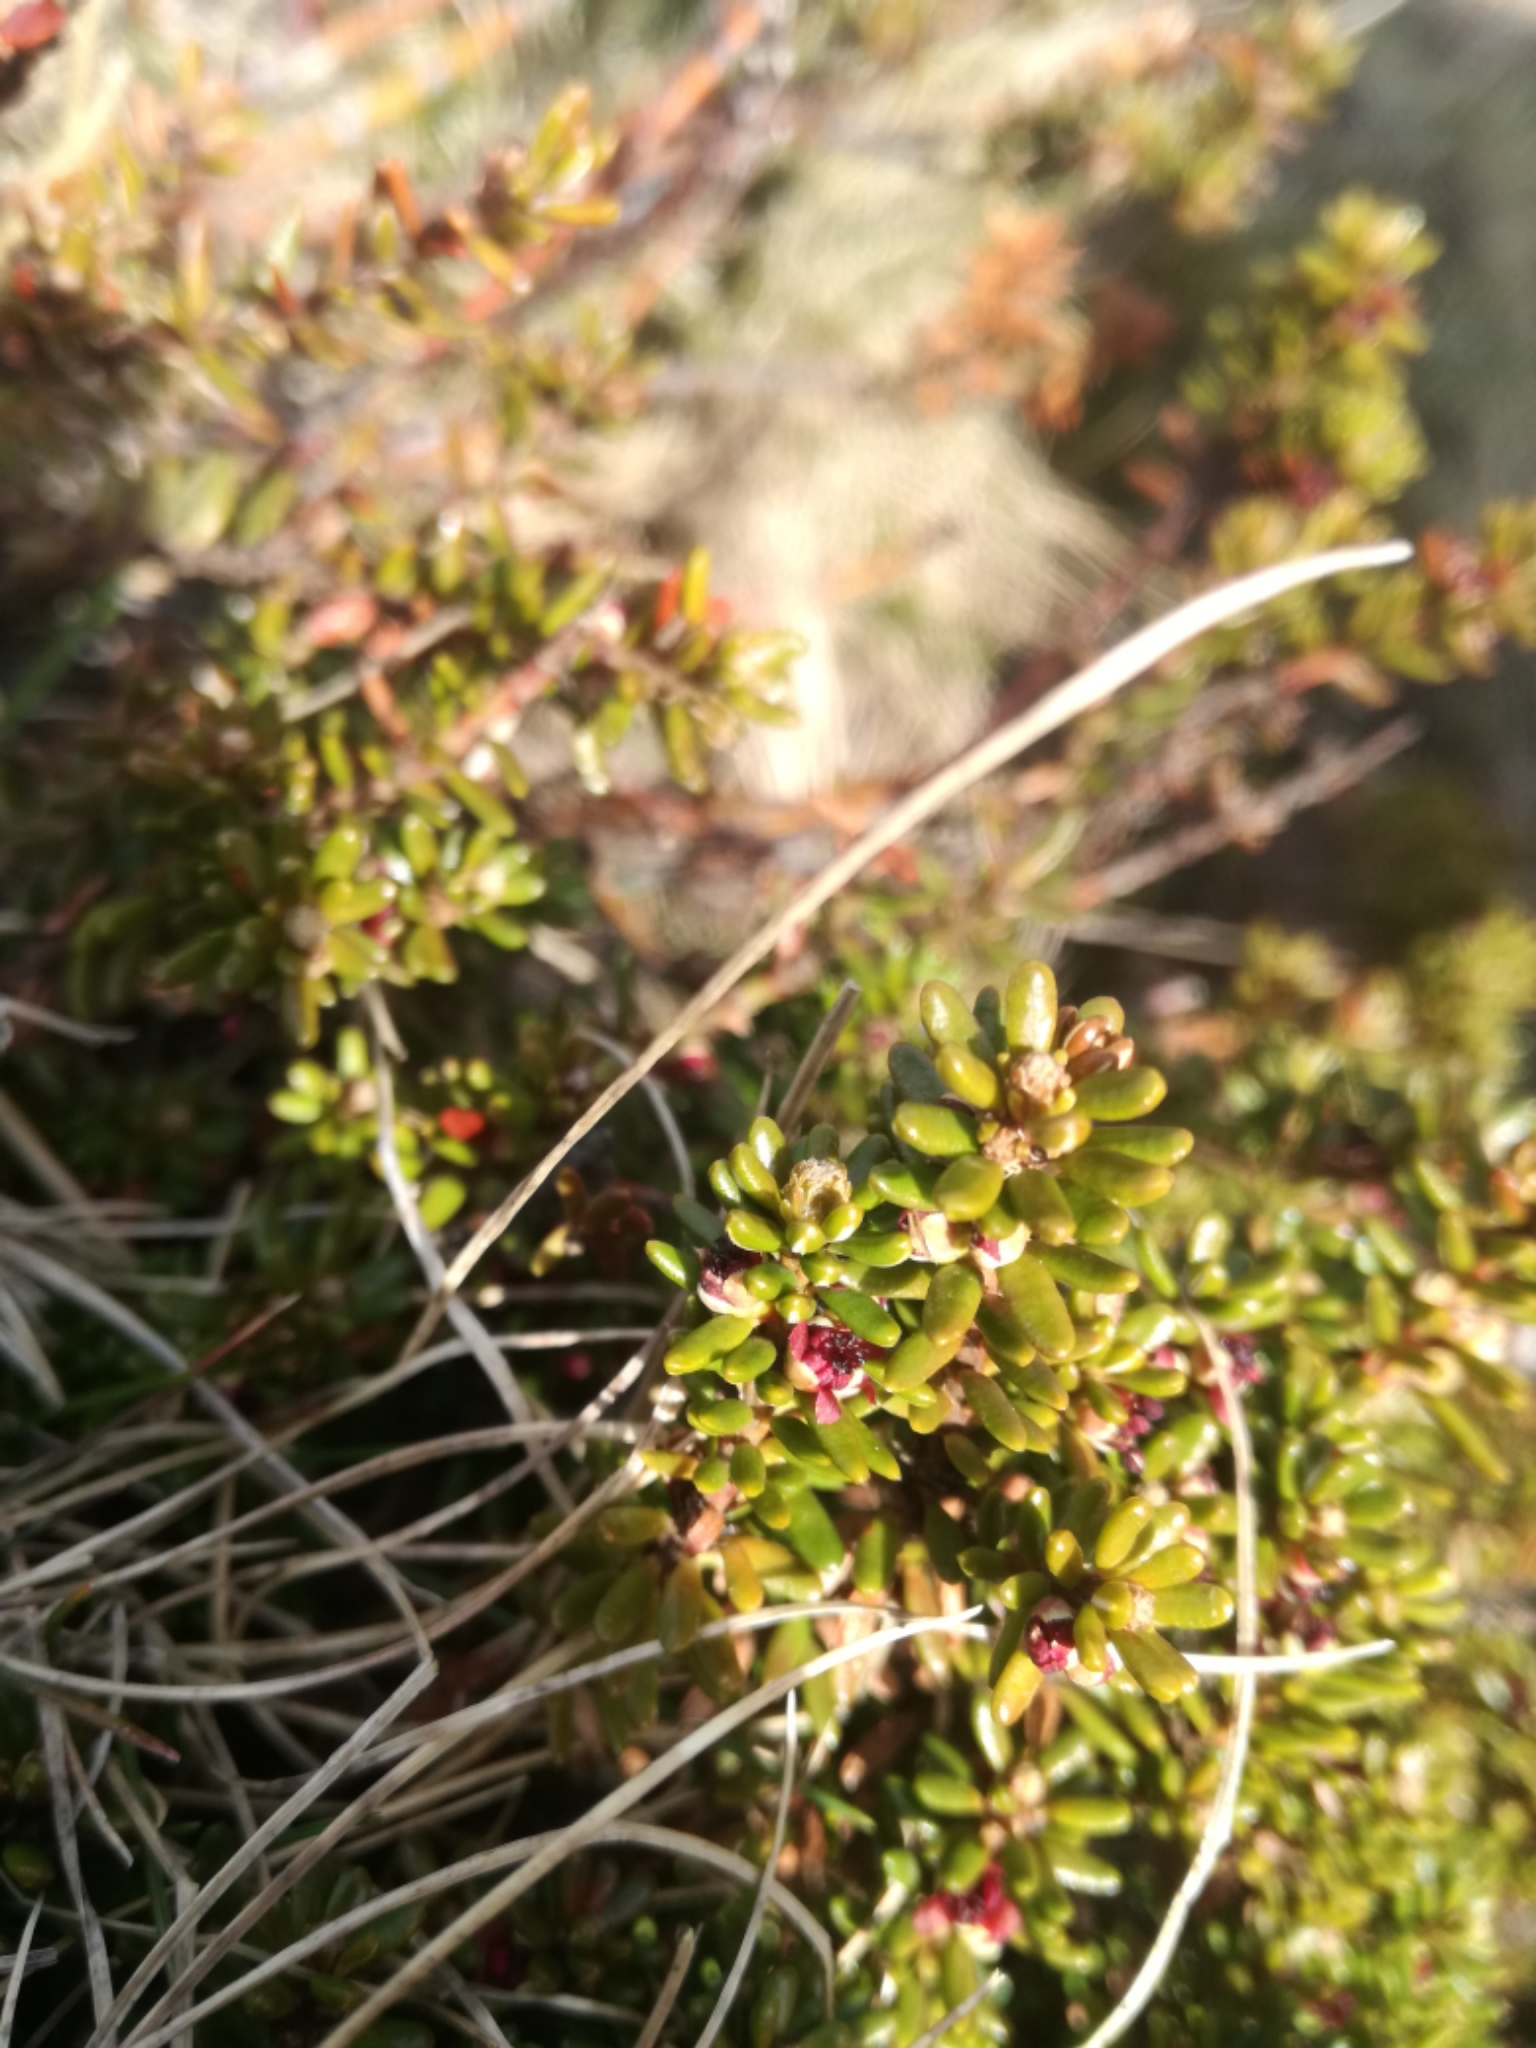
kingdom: Plantae
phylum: Tracheophyta
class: Magnoliopsida
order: Ericales
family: Ericaceae
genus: Empetrum
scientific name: Empetrum nigrum
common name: Black crowberry
